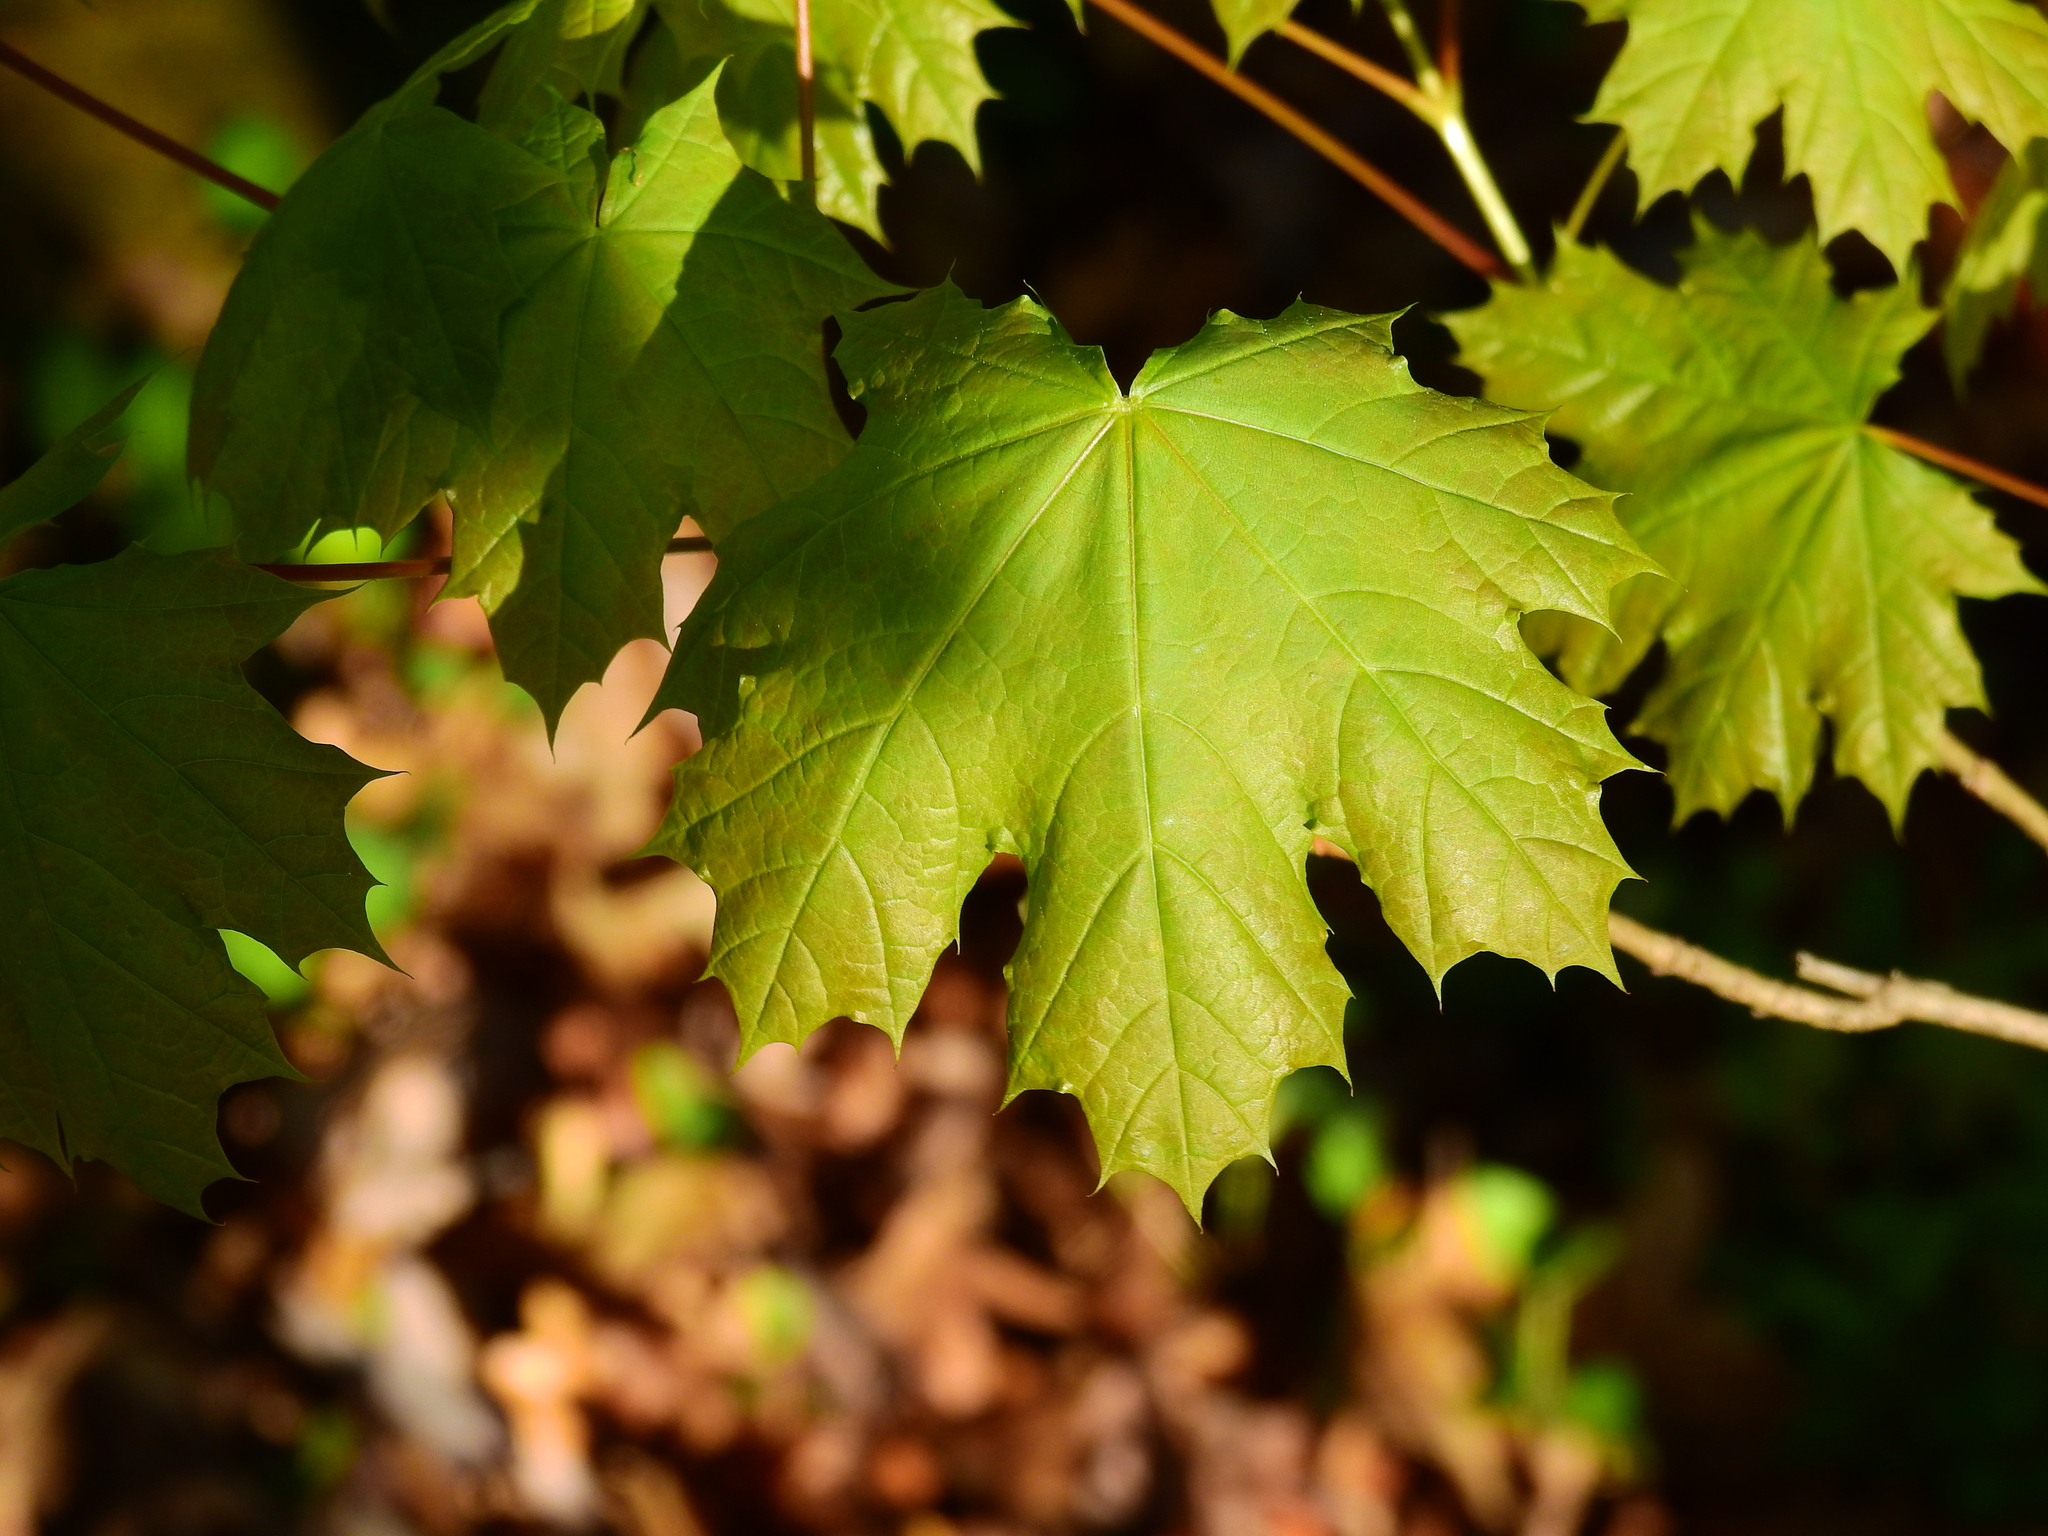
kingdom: Plantae
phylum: Tracheophyta
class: Magnoliopsida
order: Sapindales
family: Sapindaceae
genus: Acer
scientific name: Acer platanoides
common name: Norway maple
